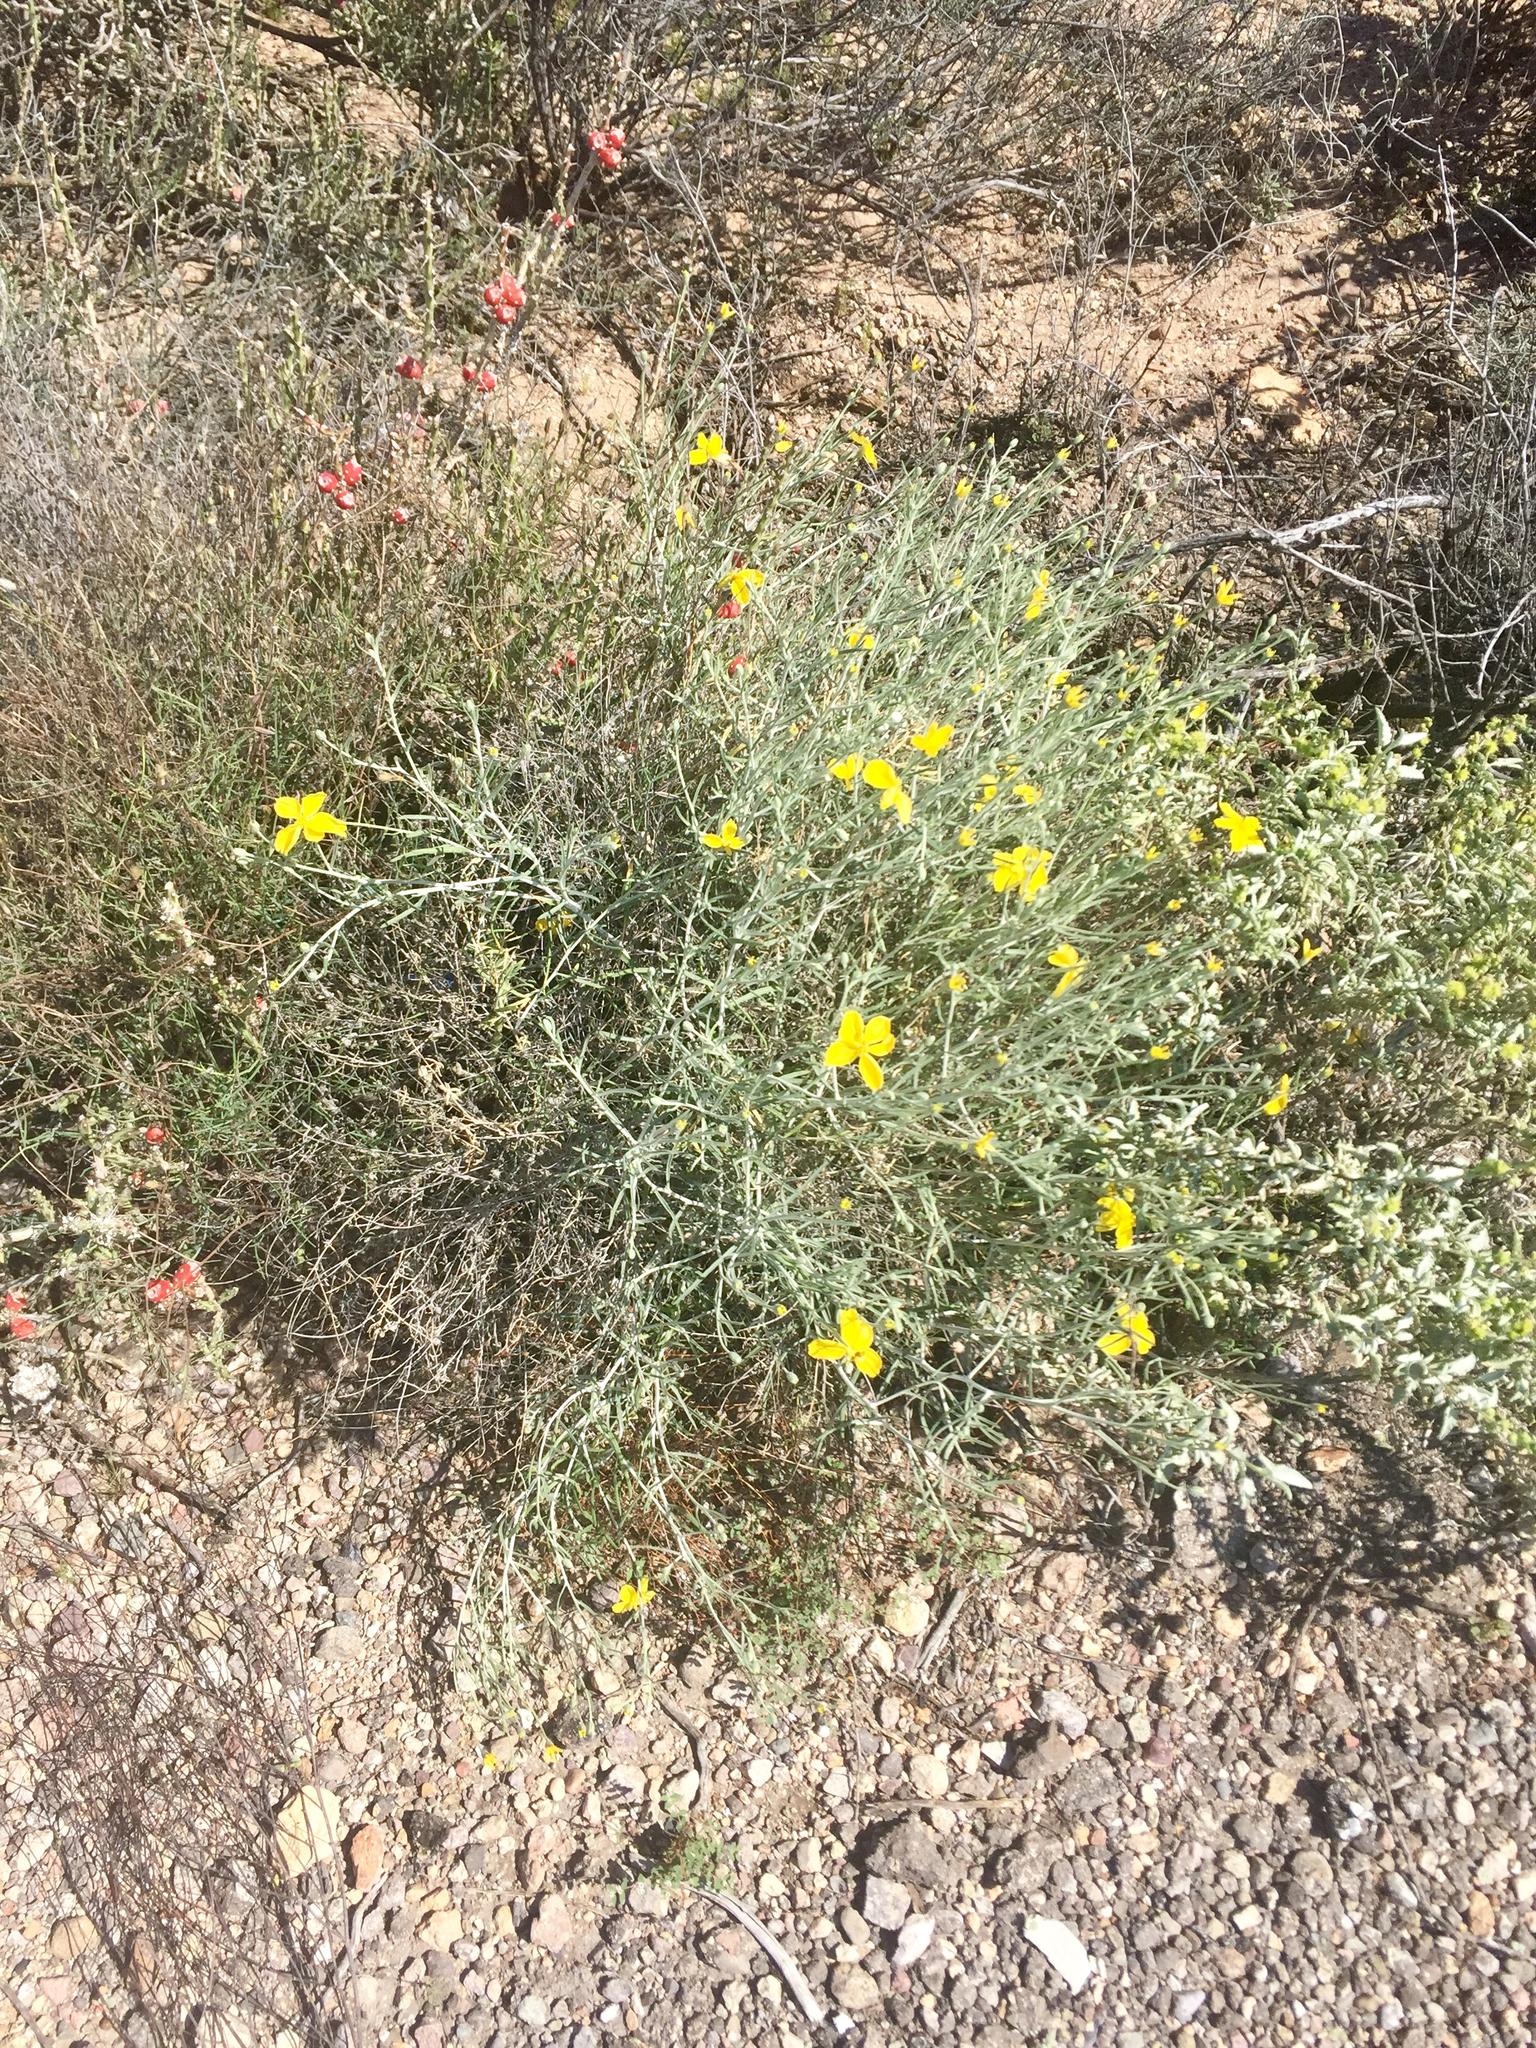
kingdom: Plantae
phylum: Tracheophyta
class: Magnoliopsida
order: Asterales
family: Asteraceae
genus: Psilostrophe
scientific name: Psilostrophe cooperi
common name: White-stem paper-flower
